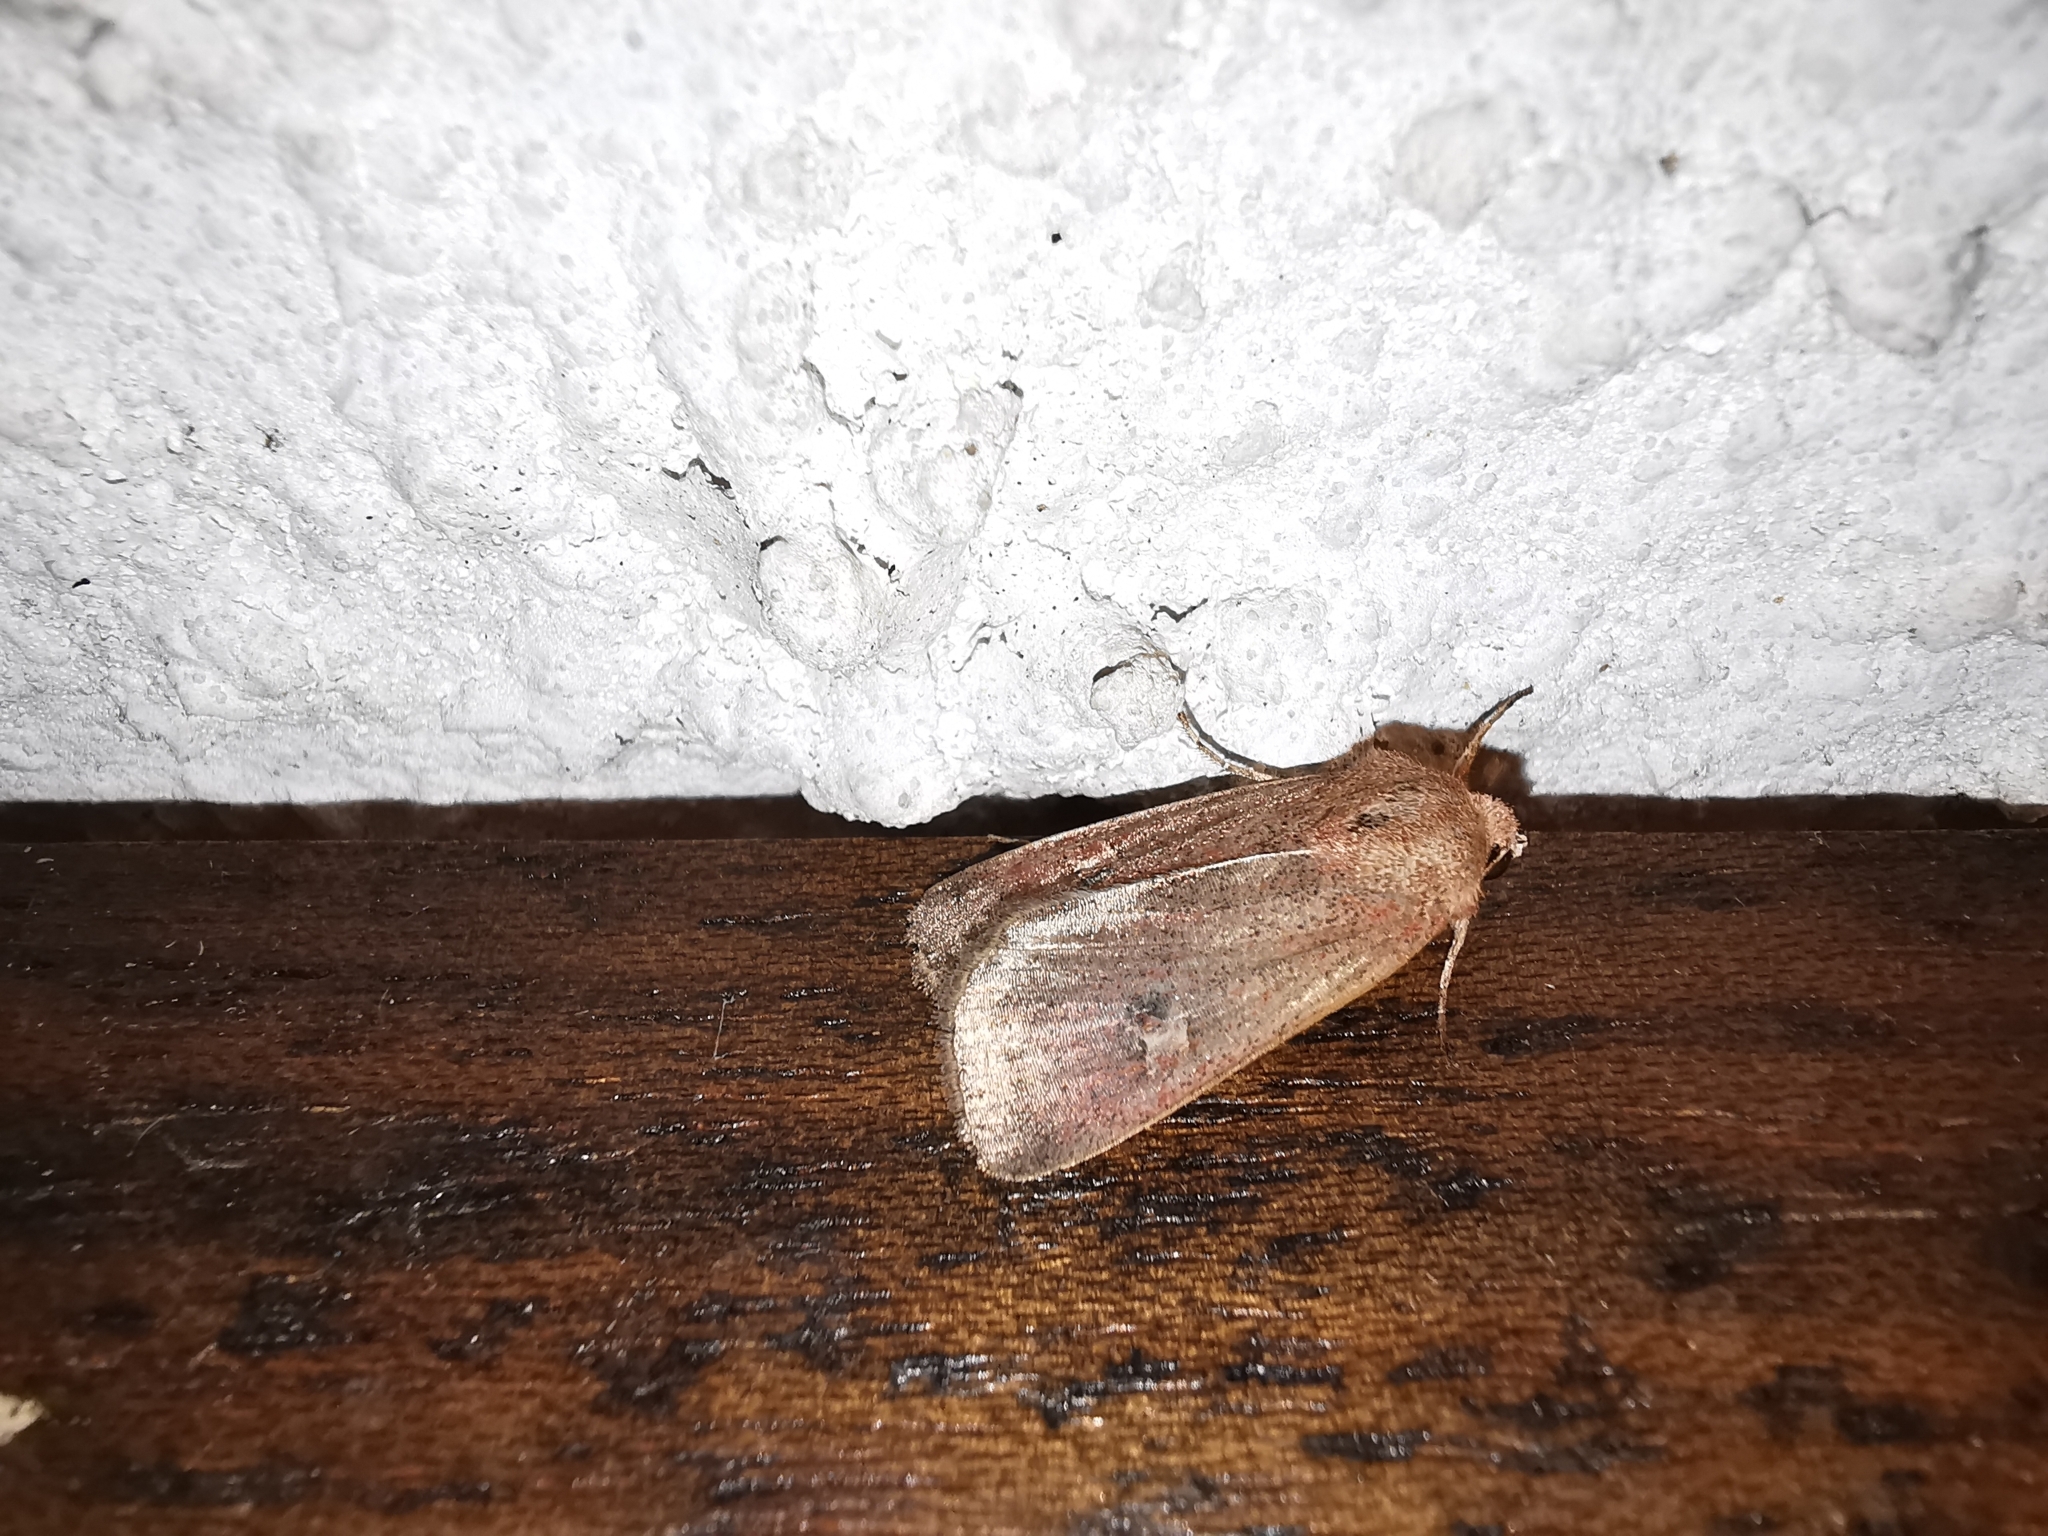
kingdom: Animalia
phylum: Arthropoda
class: Insecta
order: Lepidoptera
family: Noctuidae
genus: Xestia
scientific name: Xestia xanthographa
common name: Square-spot rustic
